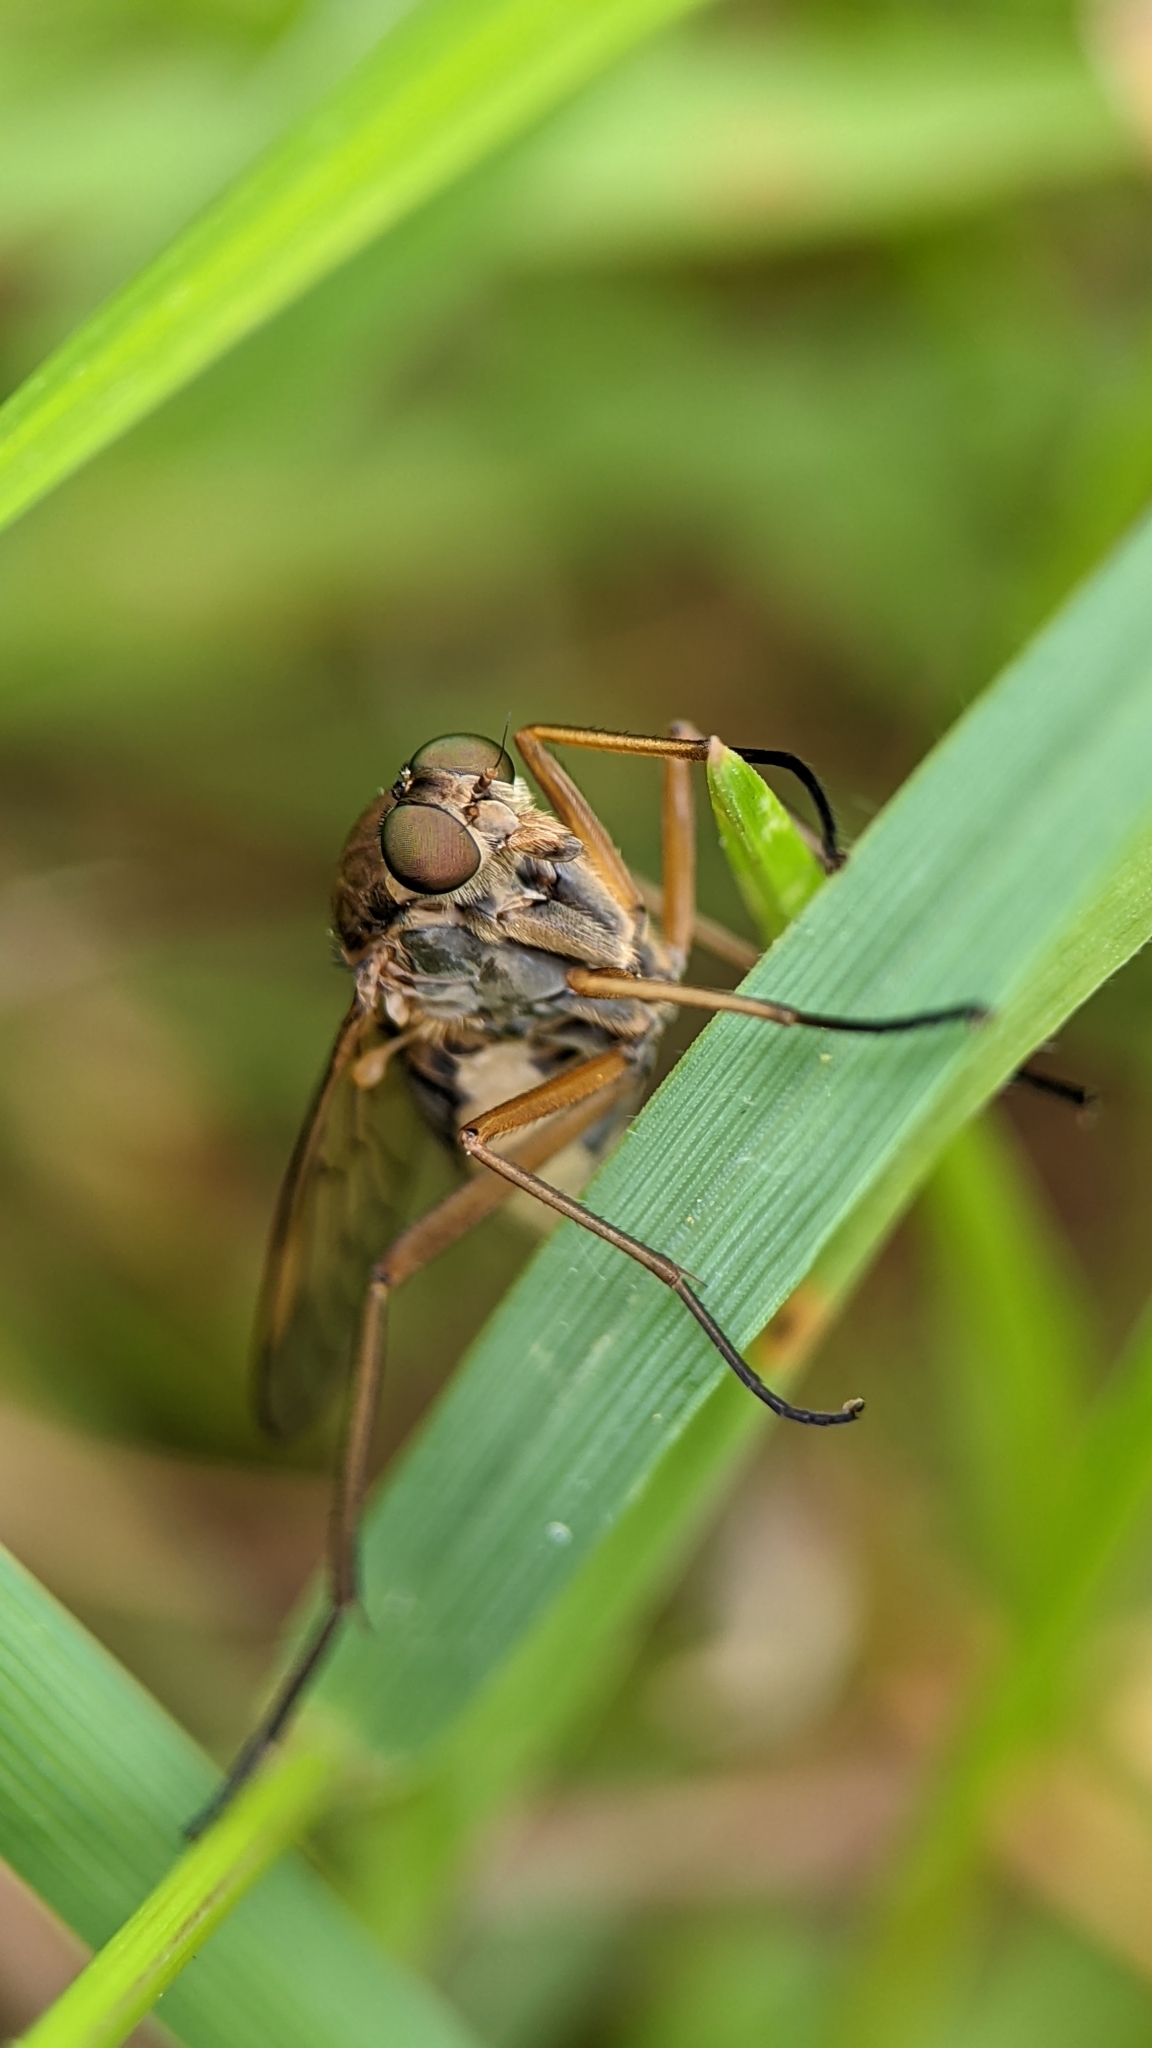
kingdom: Animalia
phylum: Arthropoda
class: Insecta
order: Diptera
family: Rhagionidae
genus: Rhagio
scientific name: Rhagio tringaria
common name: Marsh snipefly
